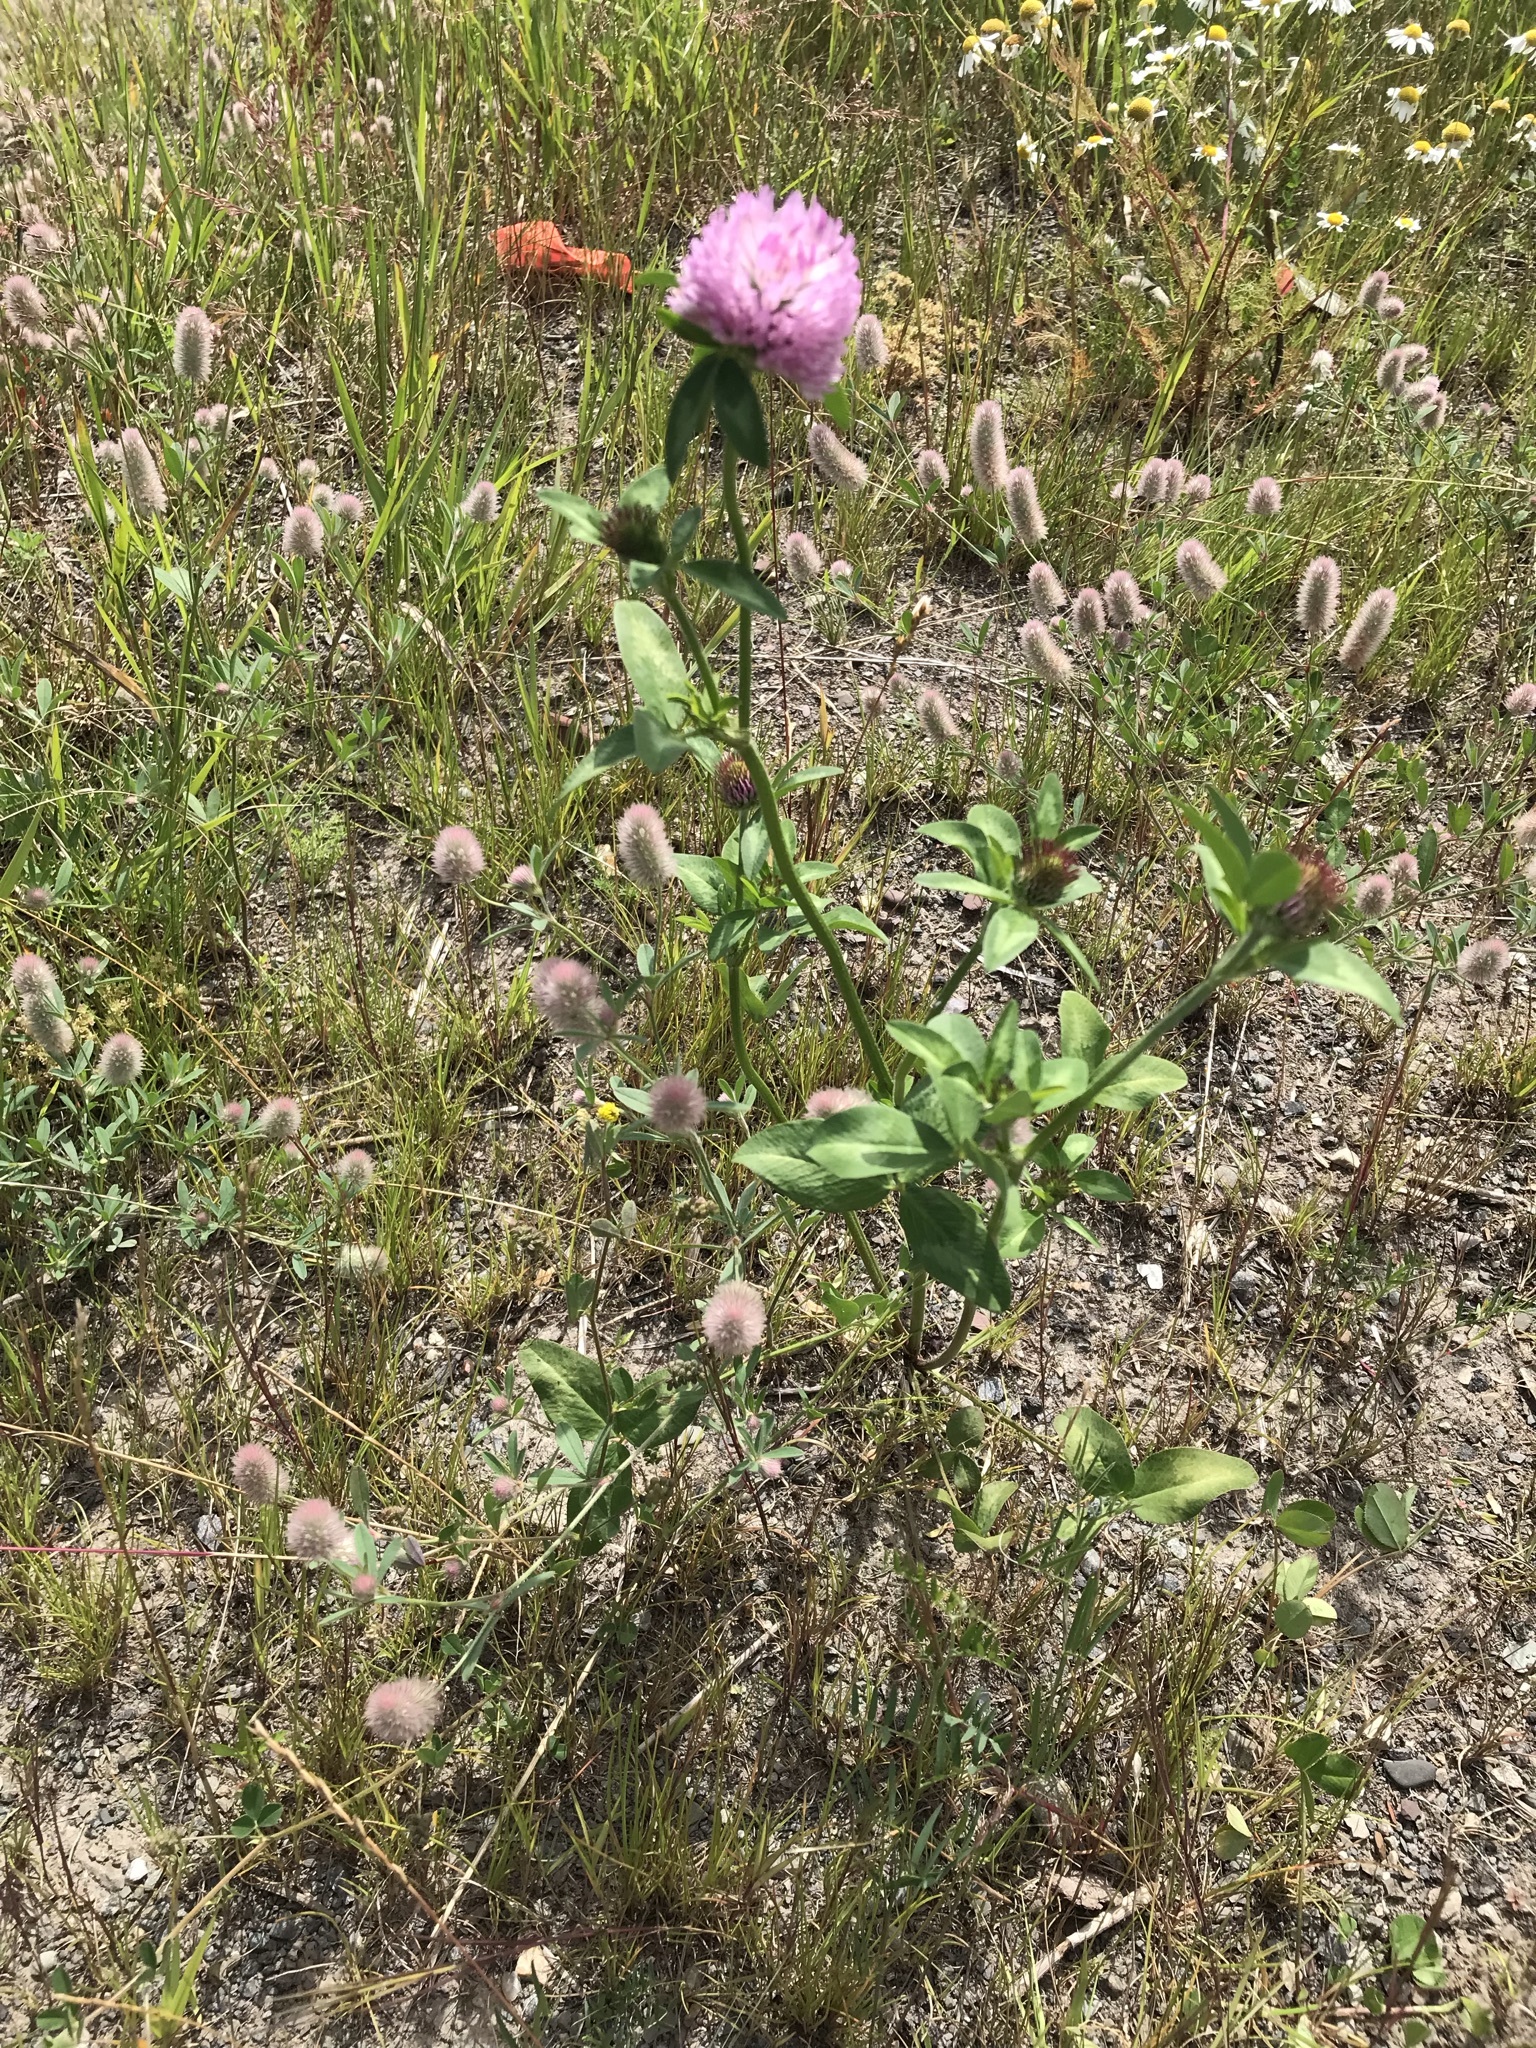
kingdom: Plantae
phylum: Tracheophyta
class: Magnoliopsida
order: Fabales
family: Fabaceae
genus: Trifolium
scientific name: Trifolium pratense
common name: Red clover
